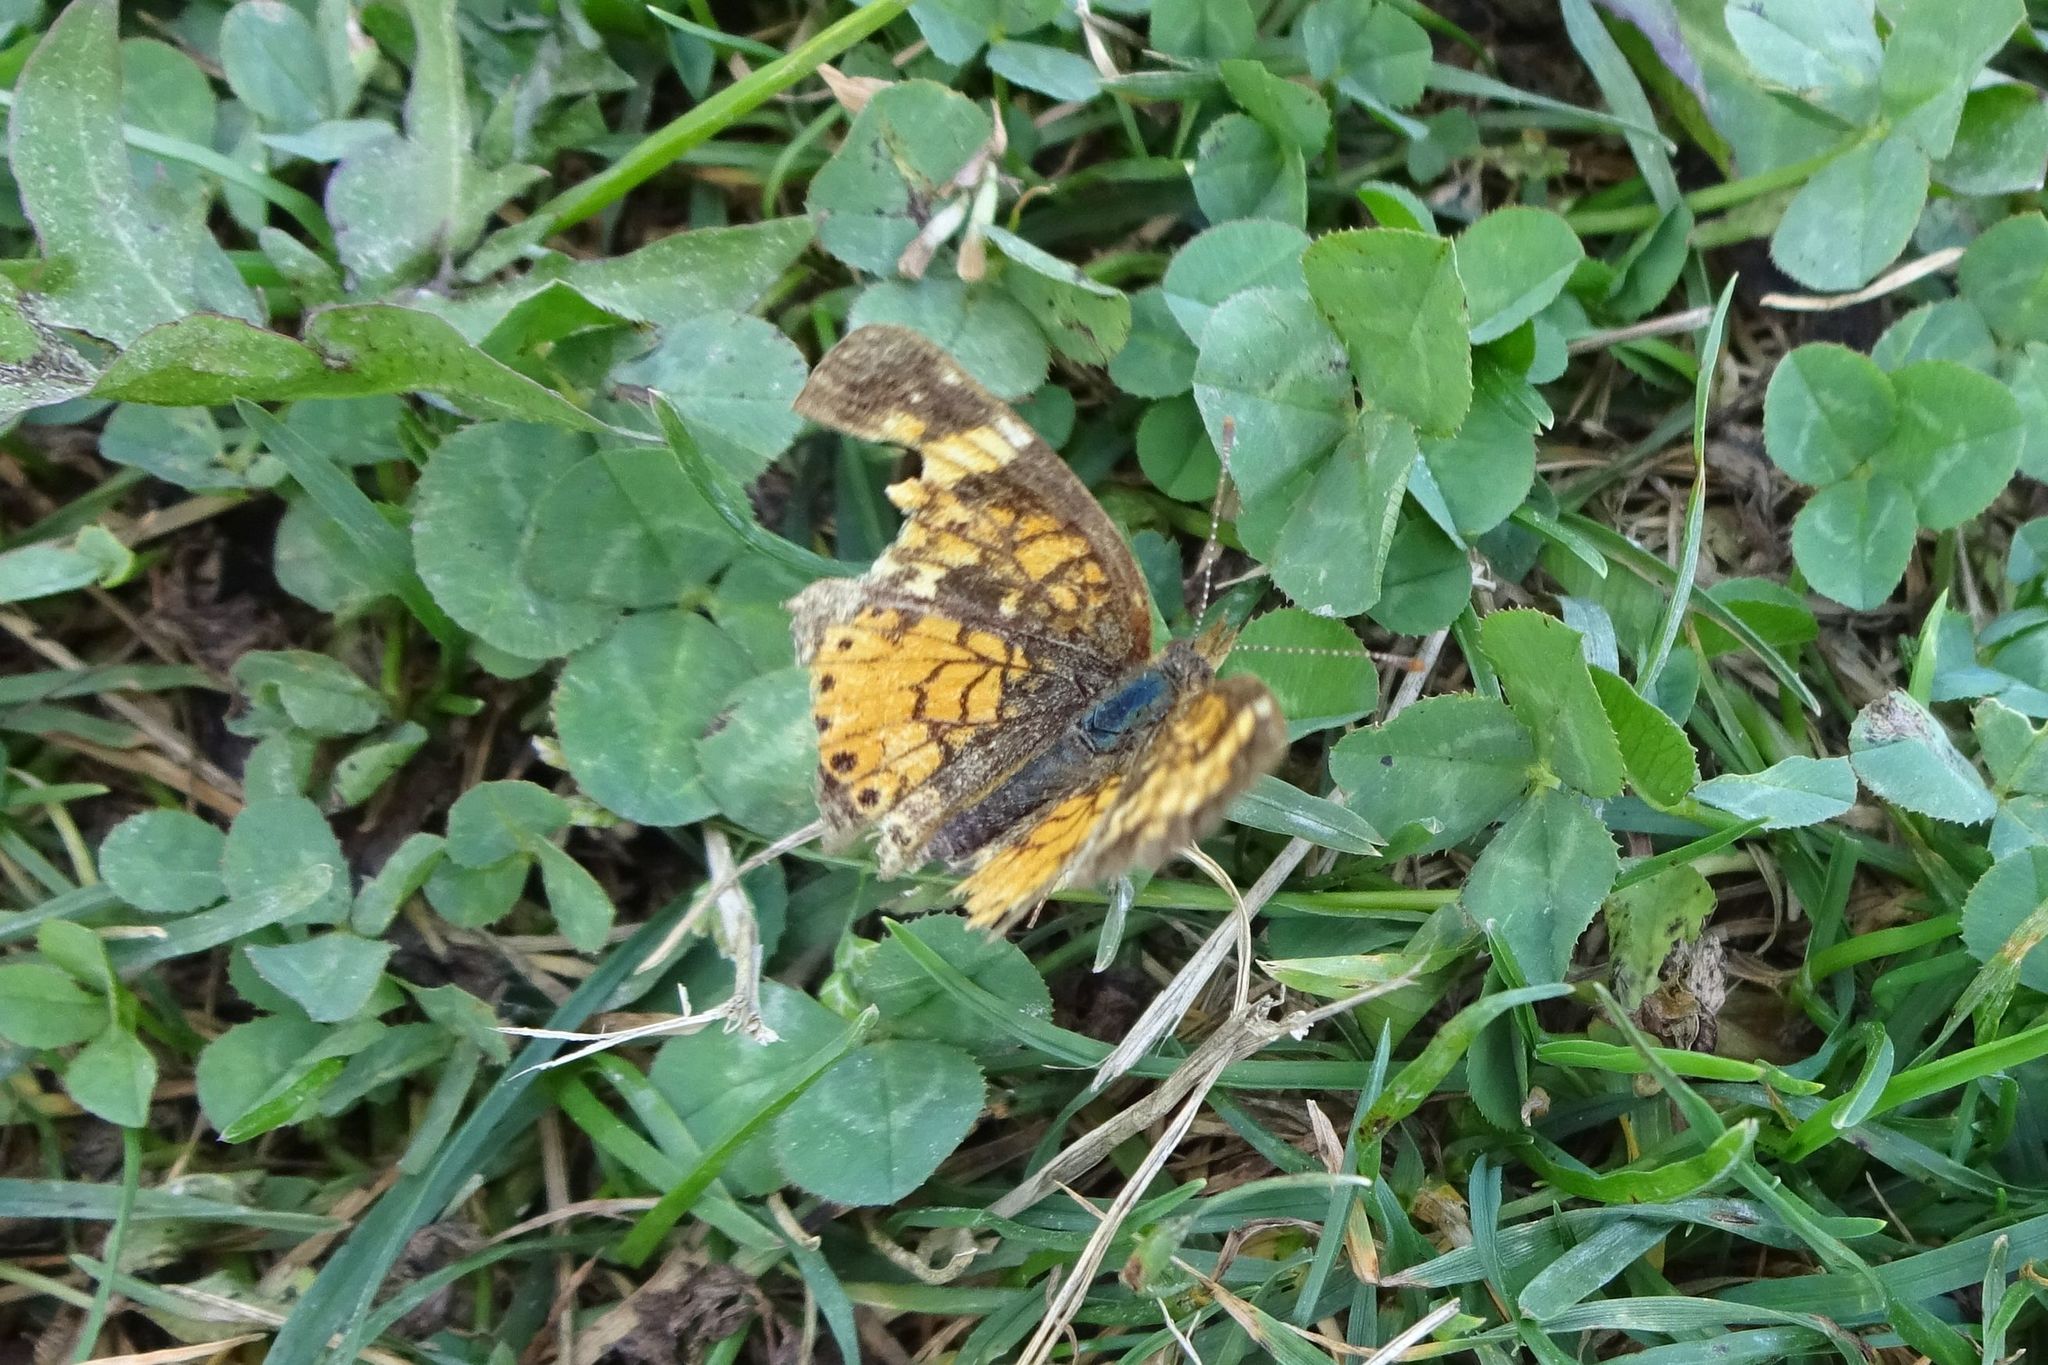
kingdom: Animalia
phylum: Arthropoda
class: Insecta
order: Lepidoptera
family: Nymphalidae
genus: Phyciodes
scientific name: Phyciodes tharos
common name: Pearl crescent
